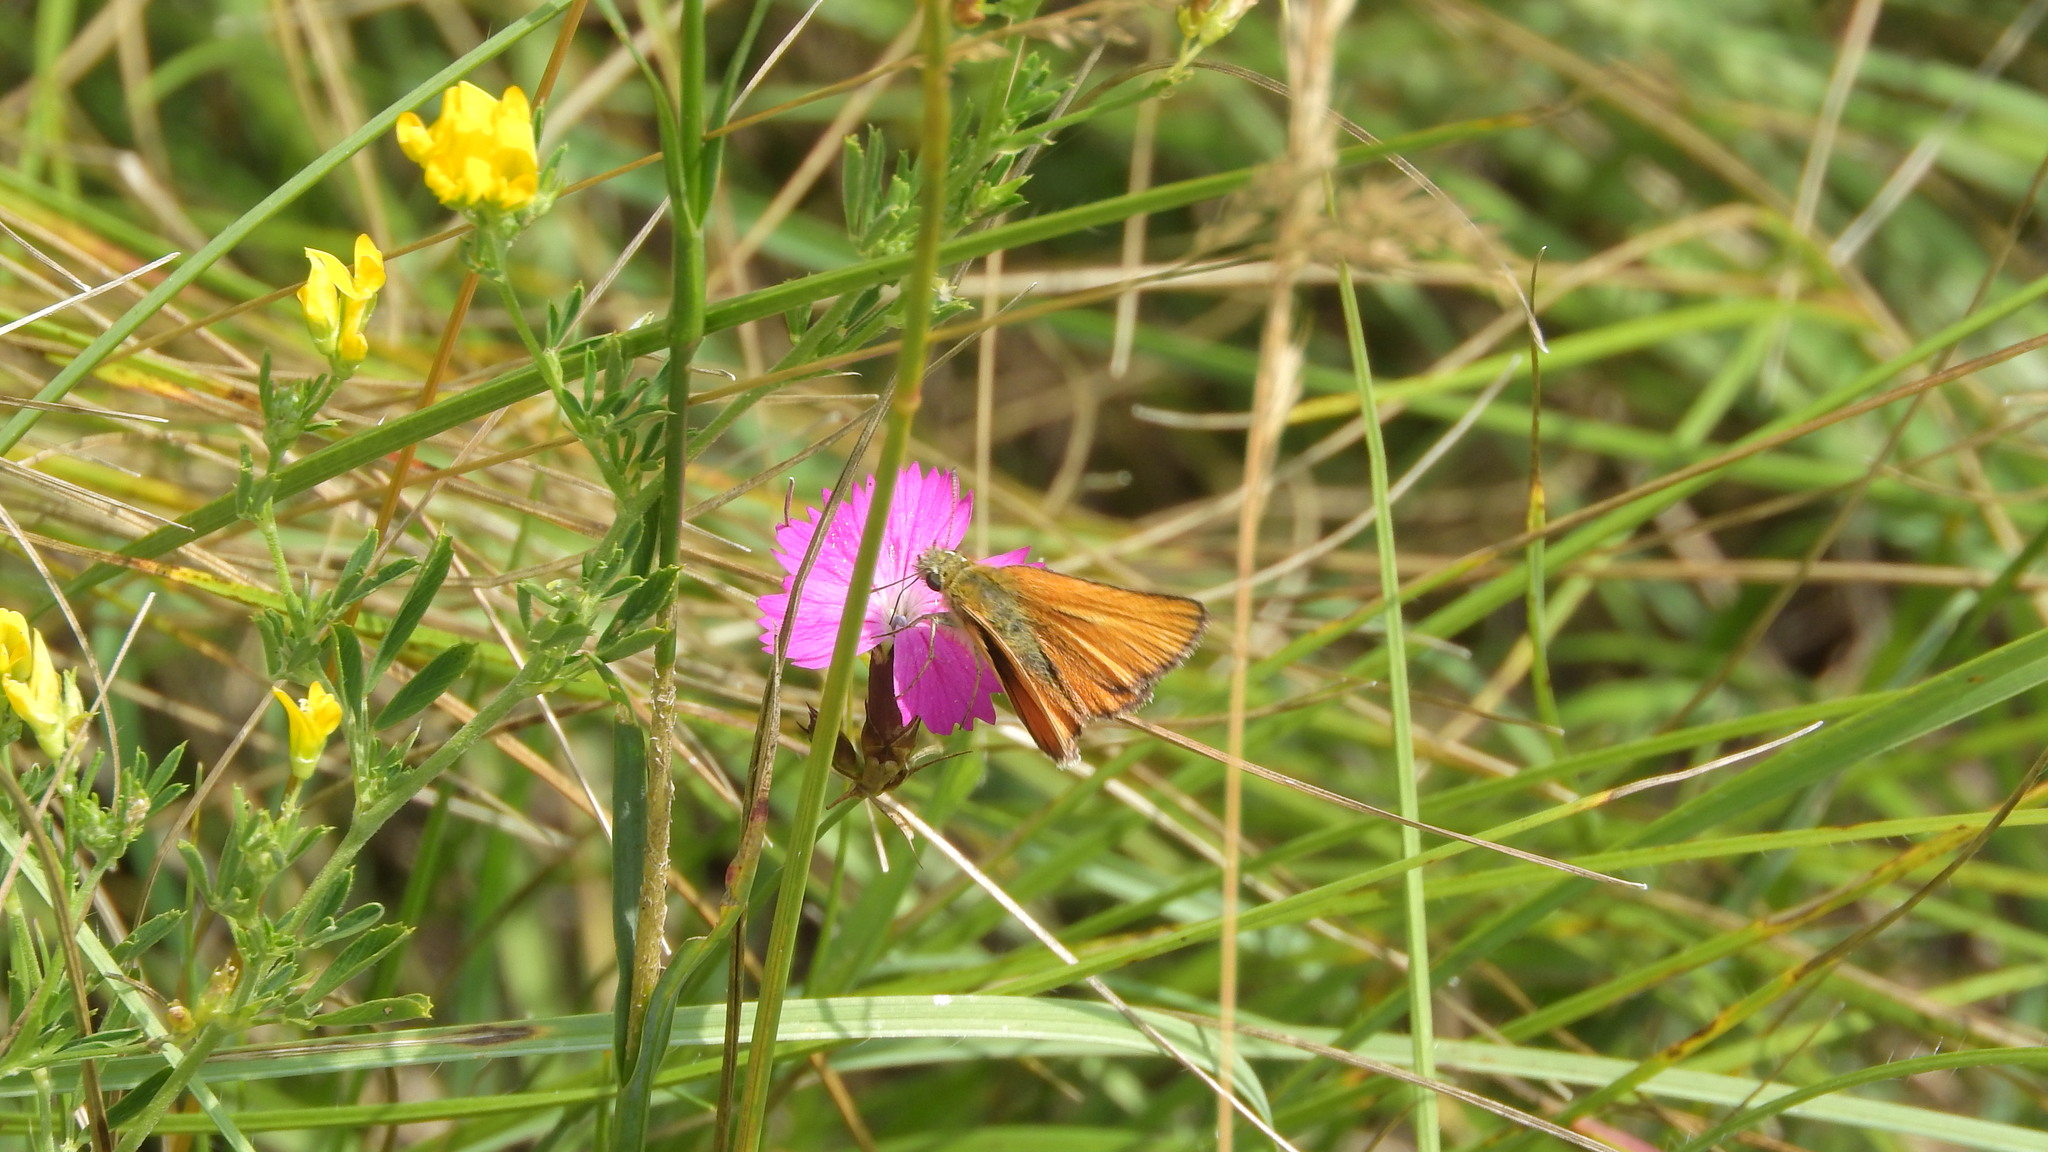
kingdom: Animalia
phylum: Arthropoda
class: Insecta
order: Lepidoptera
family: Hesperiidae
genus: Thymelicus
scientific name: Thymelicus lineola
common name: Essex skipper
